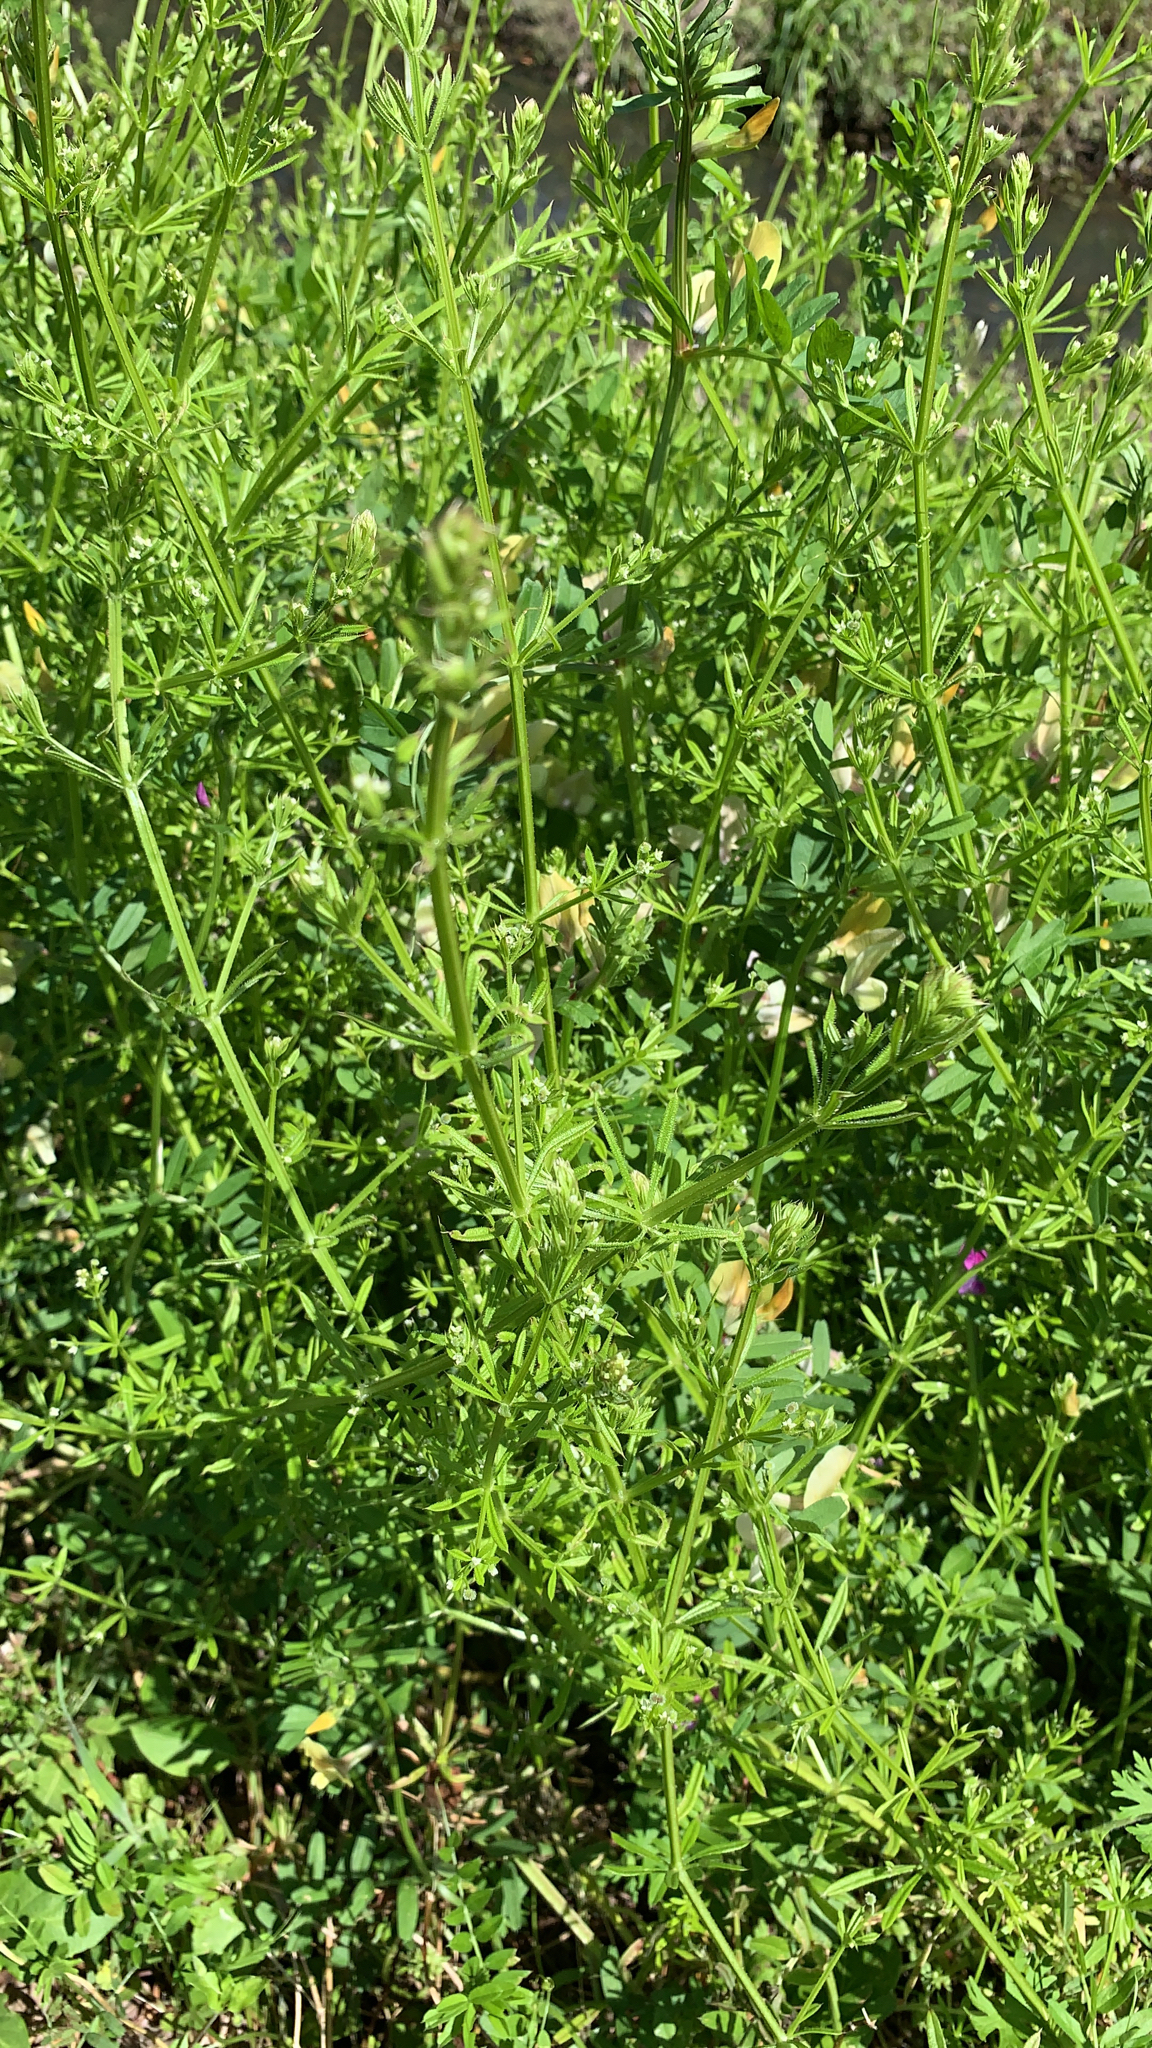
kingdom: Plantae
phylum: Tracheophyta
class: Magnoliopsida
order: Gentianales
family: Rubiaceae
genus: Galium
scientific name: Galium aparine
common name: Cleavers
